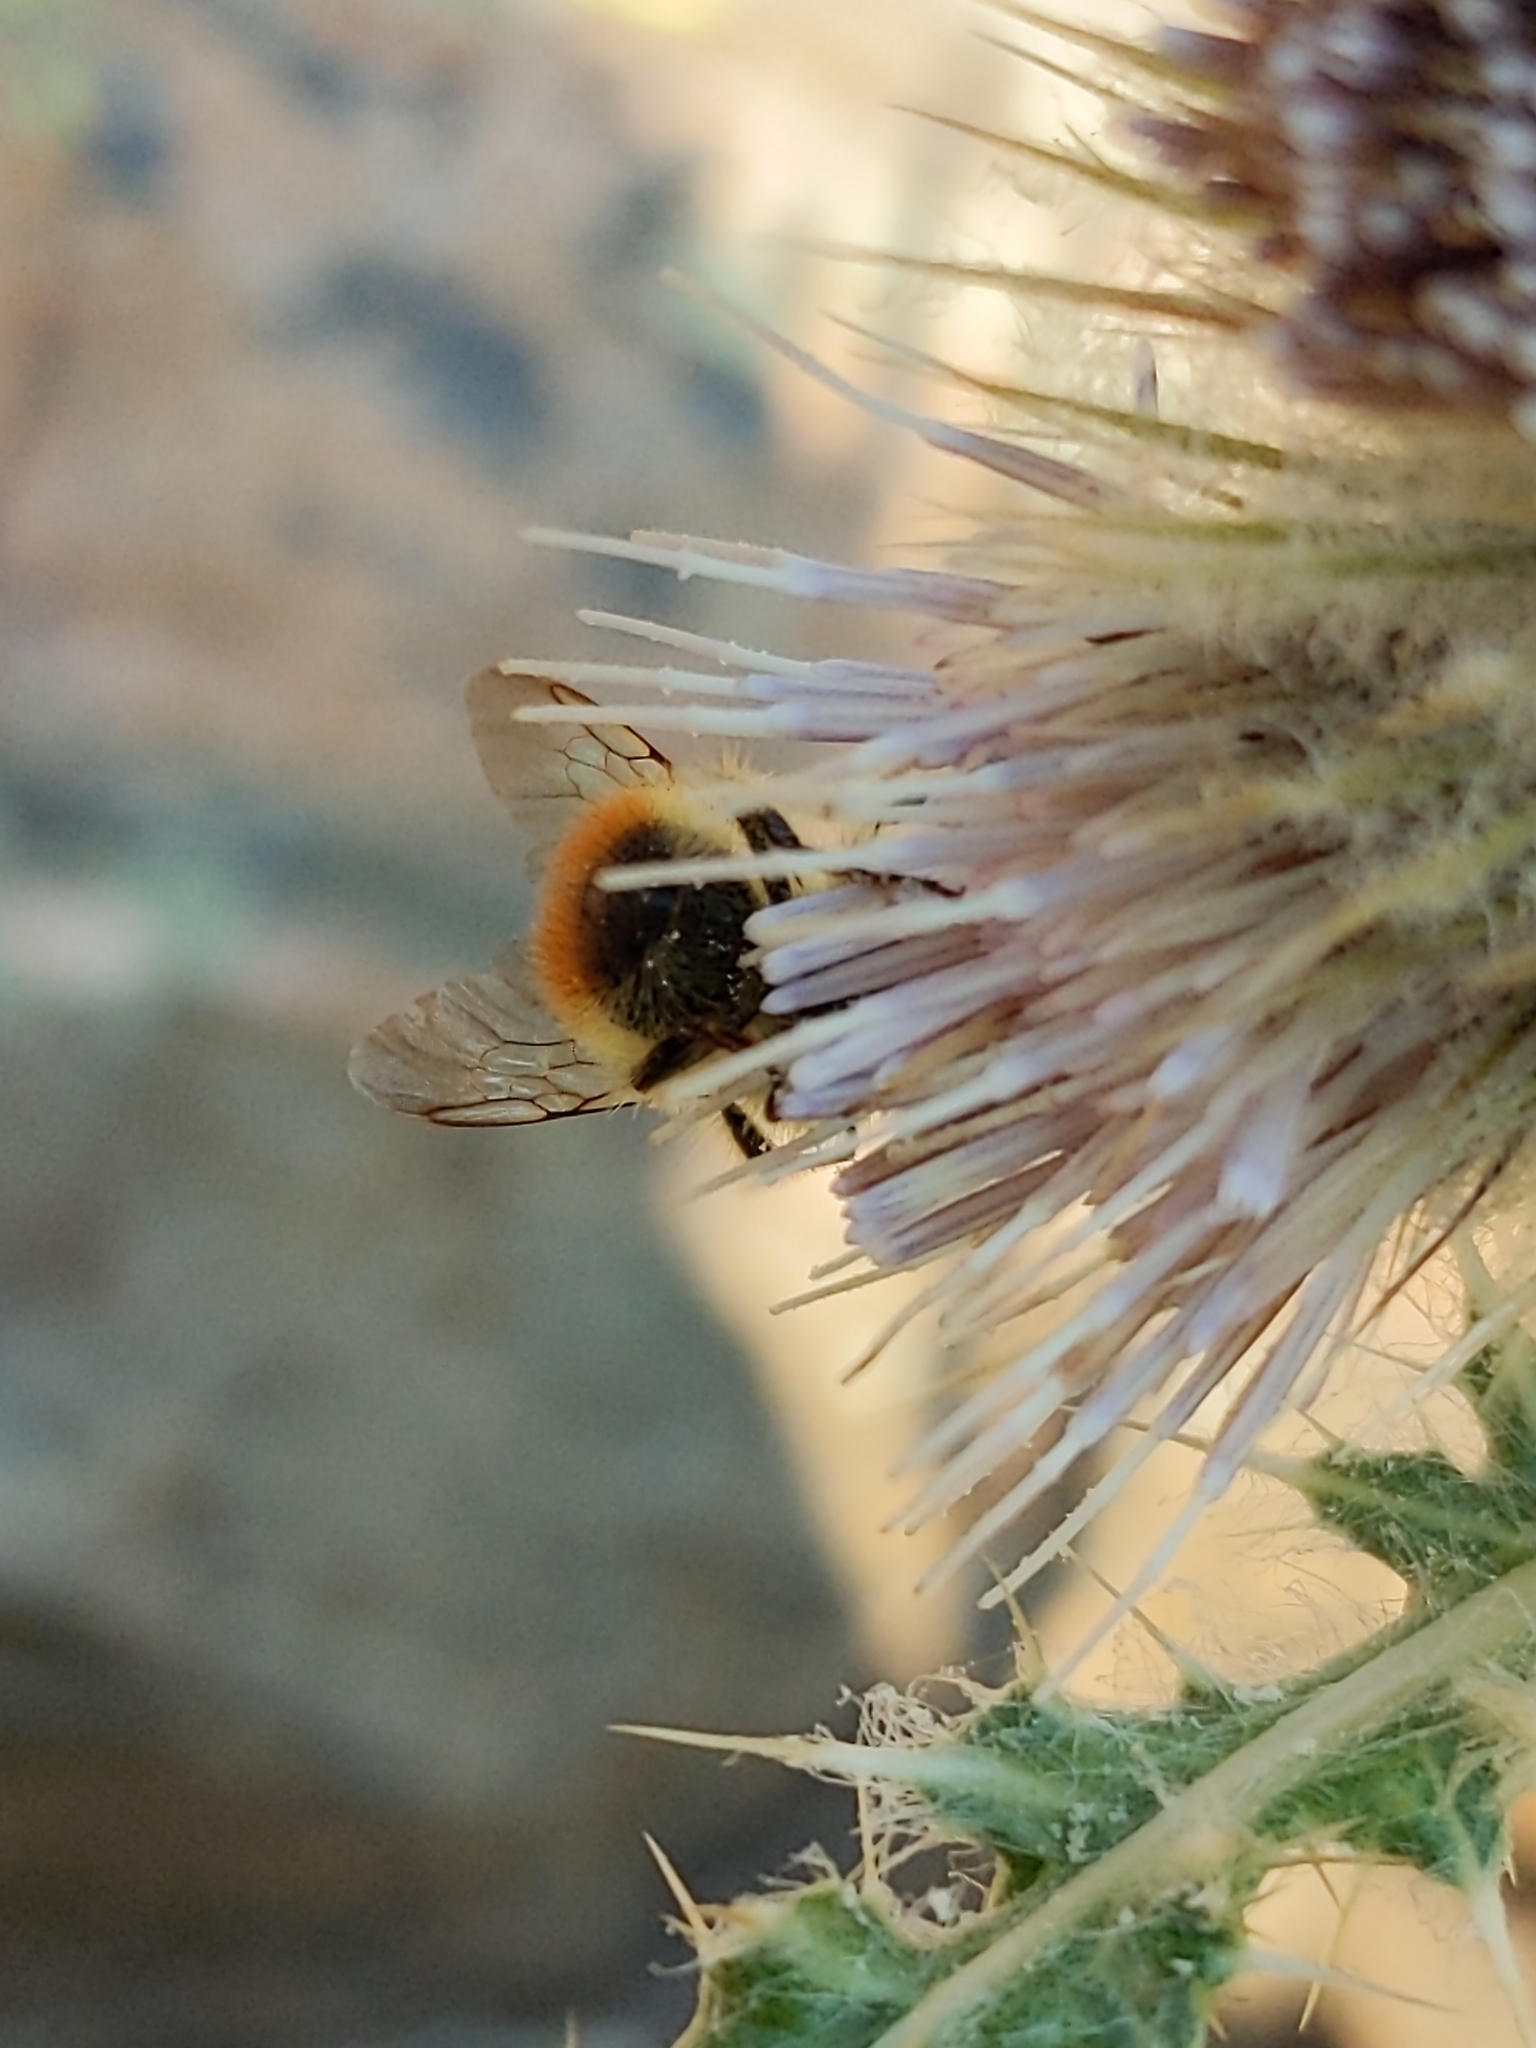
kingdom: Animalia
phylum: Arthropoda
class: Insecta
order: Hymenoptera
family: Apidae
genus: Bombus
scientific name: Bombus flavifrons
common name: Yellow head bumble bee
